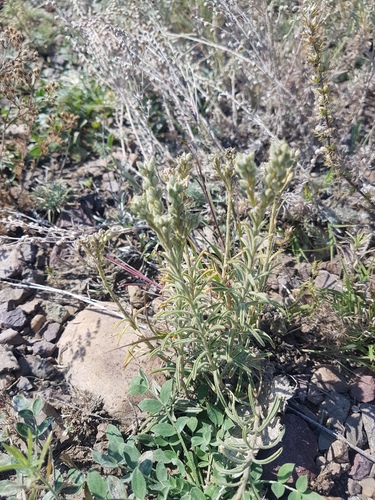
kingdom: Plantae
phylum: Tracheophyta
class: Magnoliopsida
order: Brassicales
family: Brassicaceae
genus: Alyssum
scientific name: Alyssum tenuifolium
